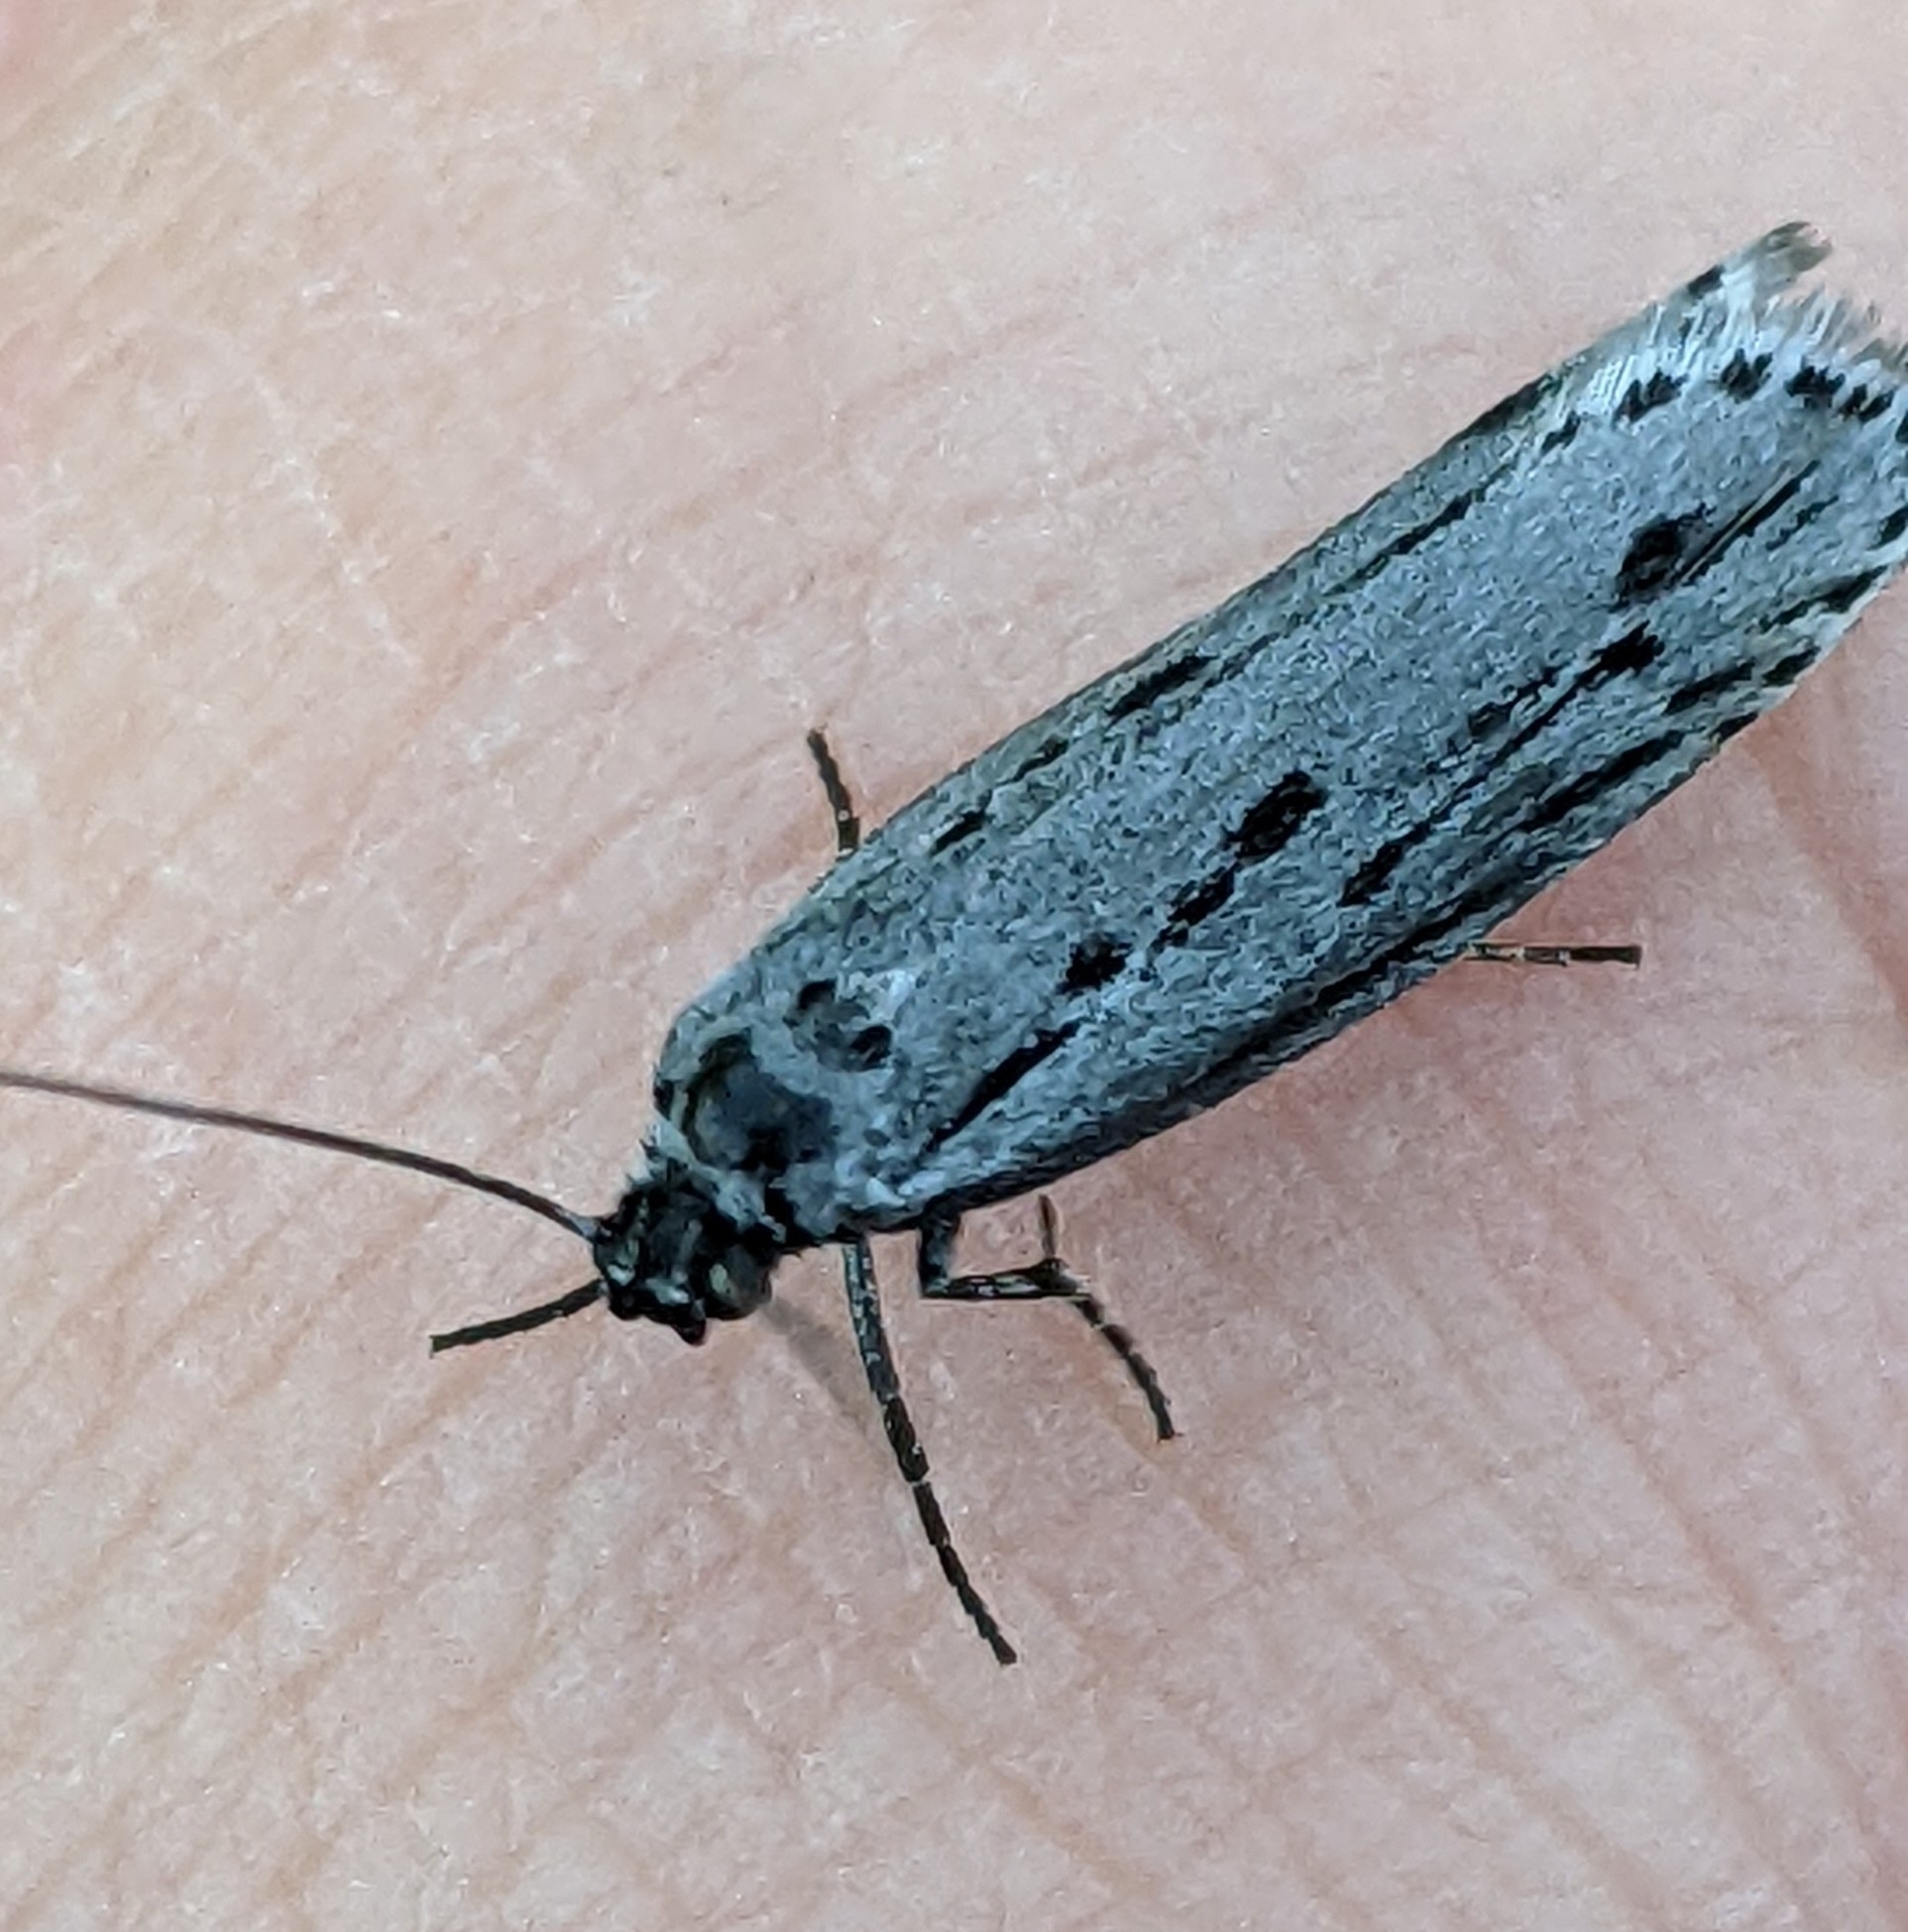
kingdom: Animalia
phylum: Arthropoda
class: Insecta
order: Lepidoptera
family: Ethmiidae
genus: Ethmia
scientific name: Ethmia monticola
